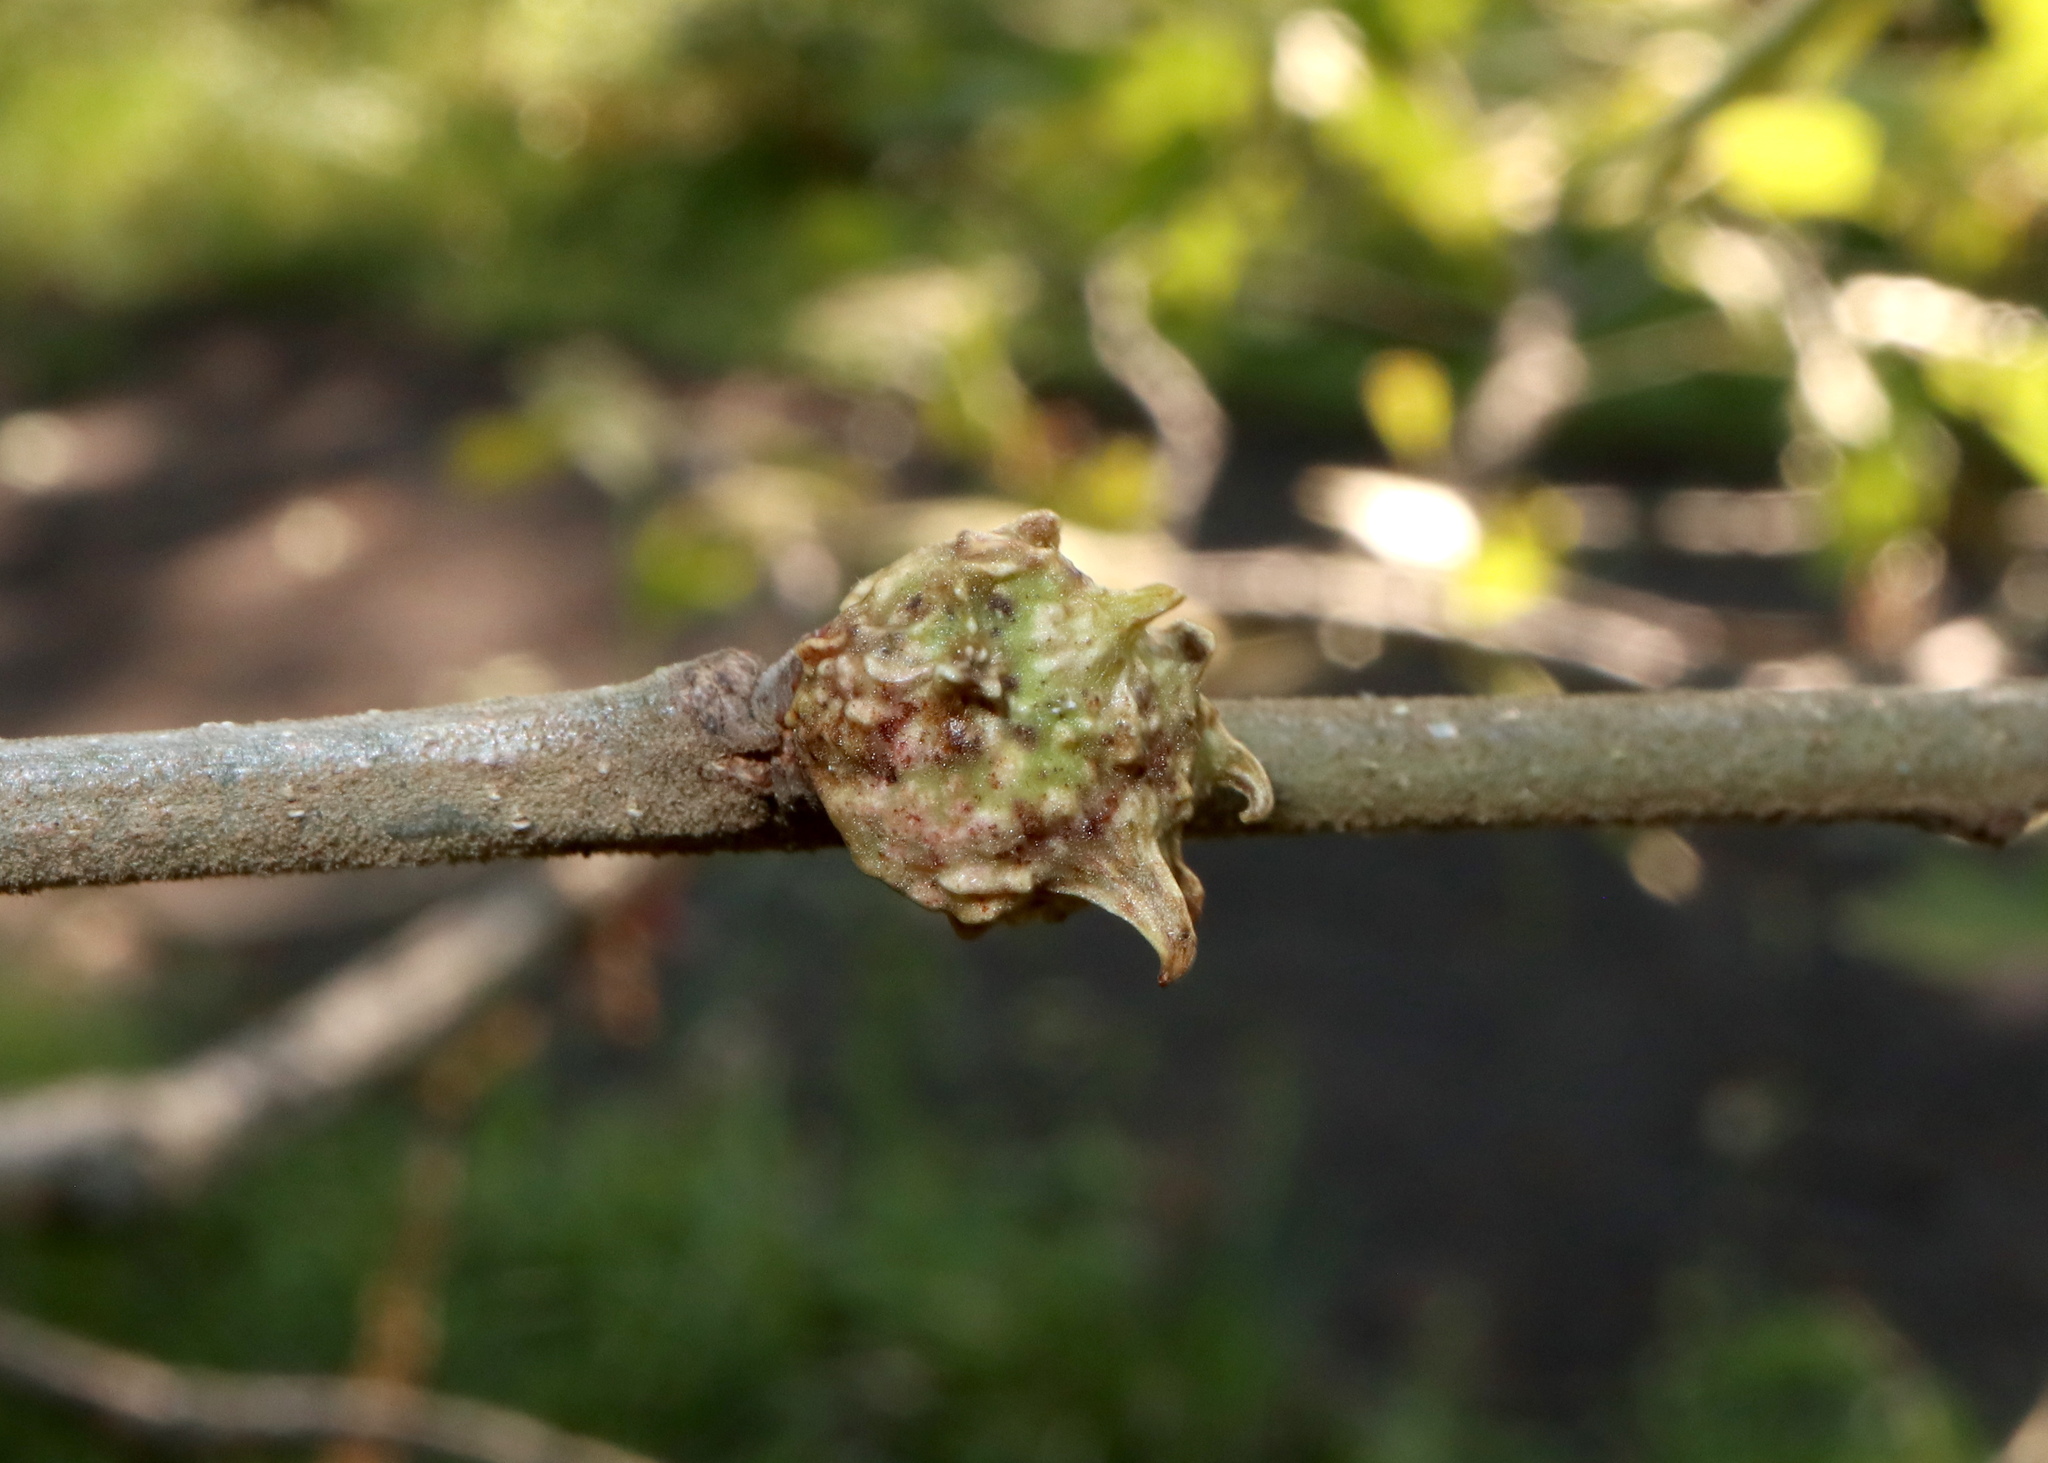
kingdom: Animalia
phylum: Arthropoda
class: Insecta
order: Hymenoptera
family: Cynipidae
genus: Andricus
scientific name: Andricus
